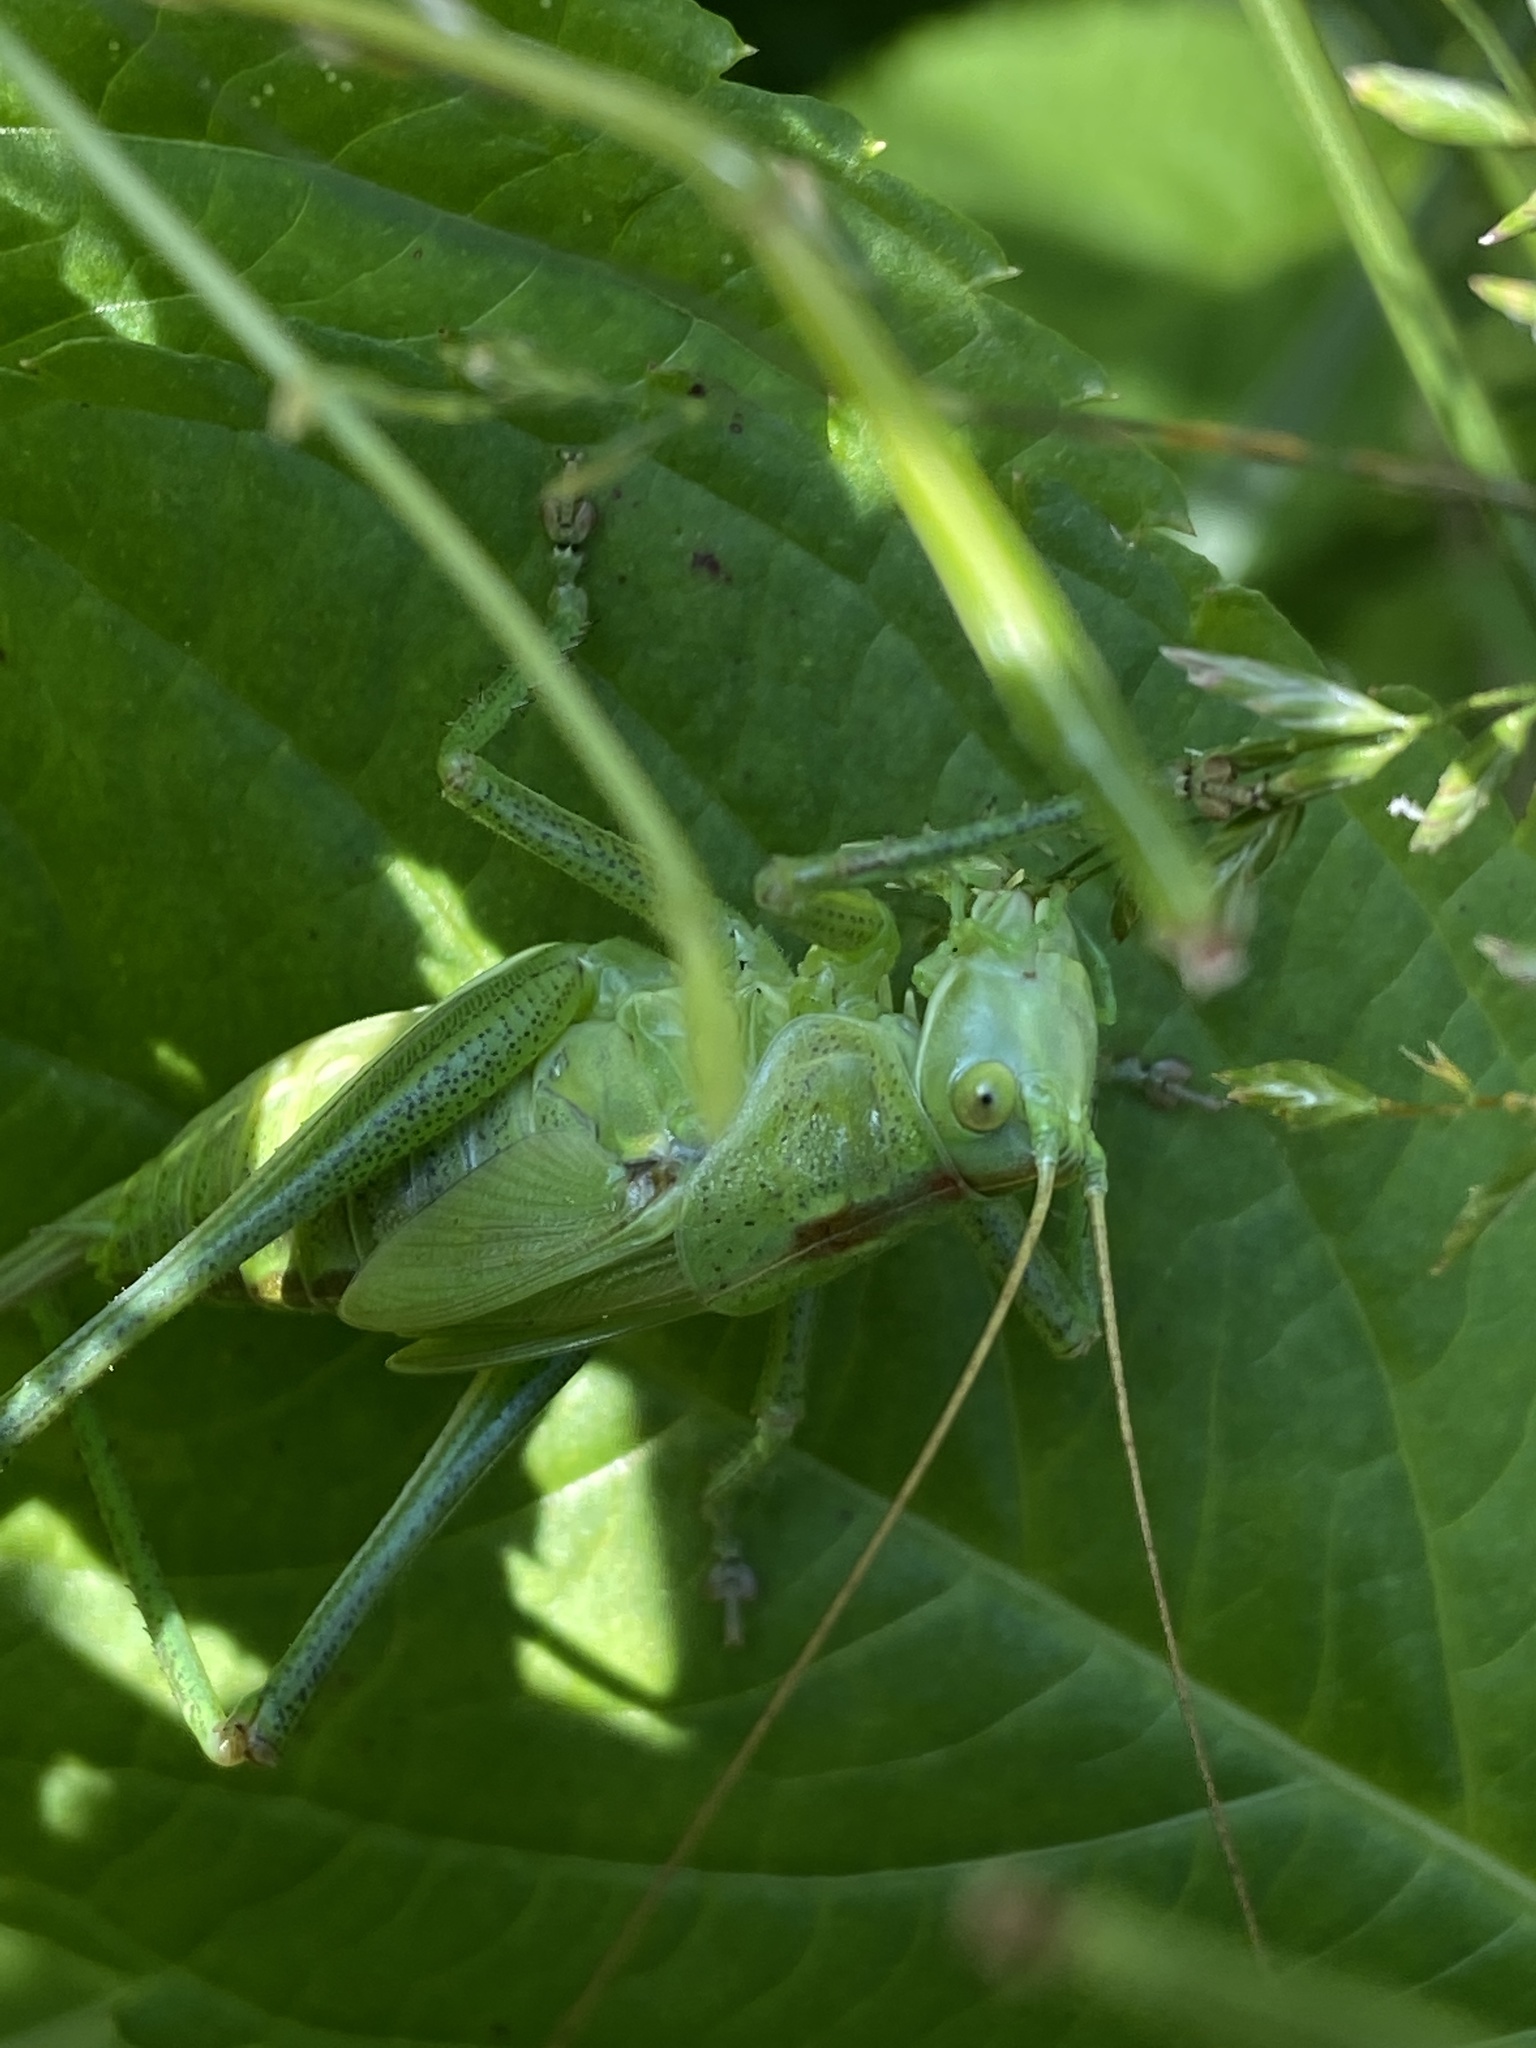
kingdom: Animalia
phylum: Arthropoda
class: Insecta
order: Orthoptera
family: Tettigoniidae
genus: Tettigonia
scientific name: Tettigonia viridissima
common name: Great green bush-cricket
